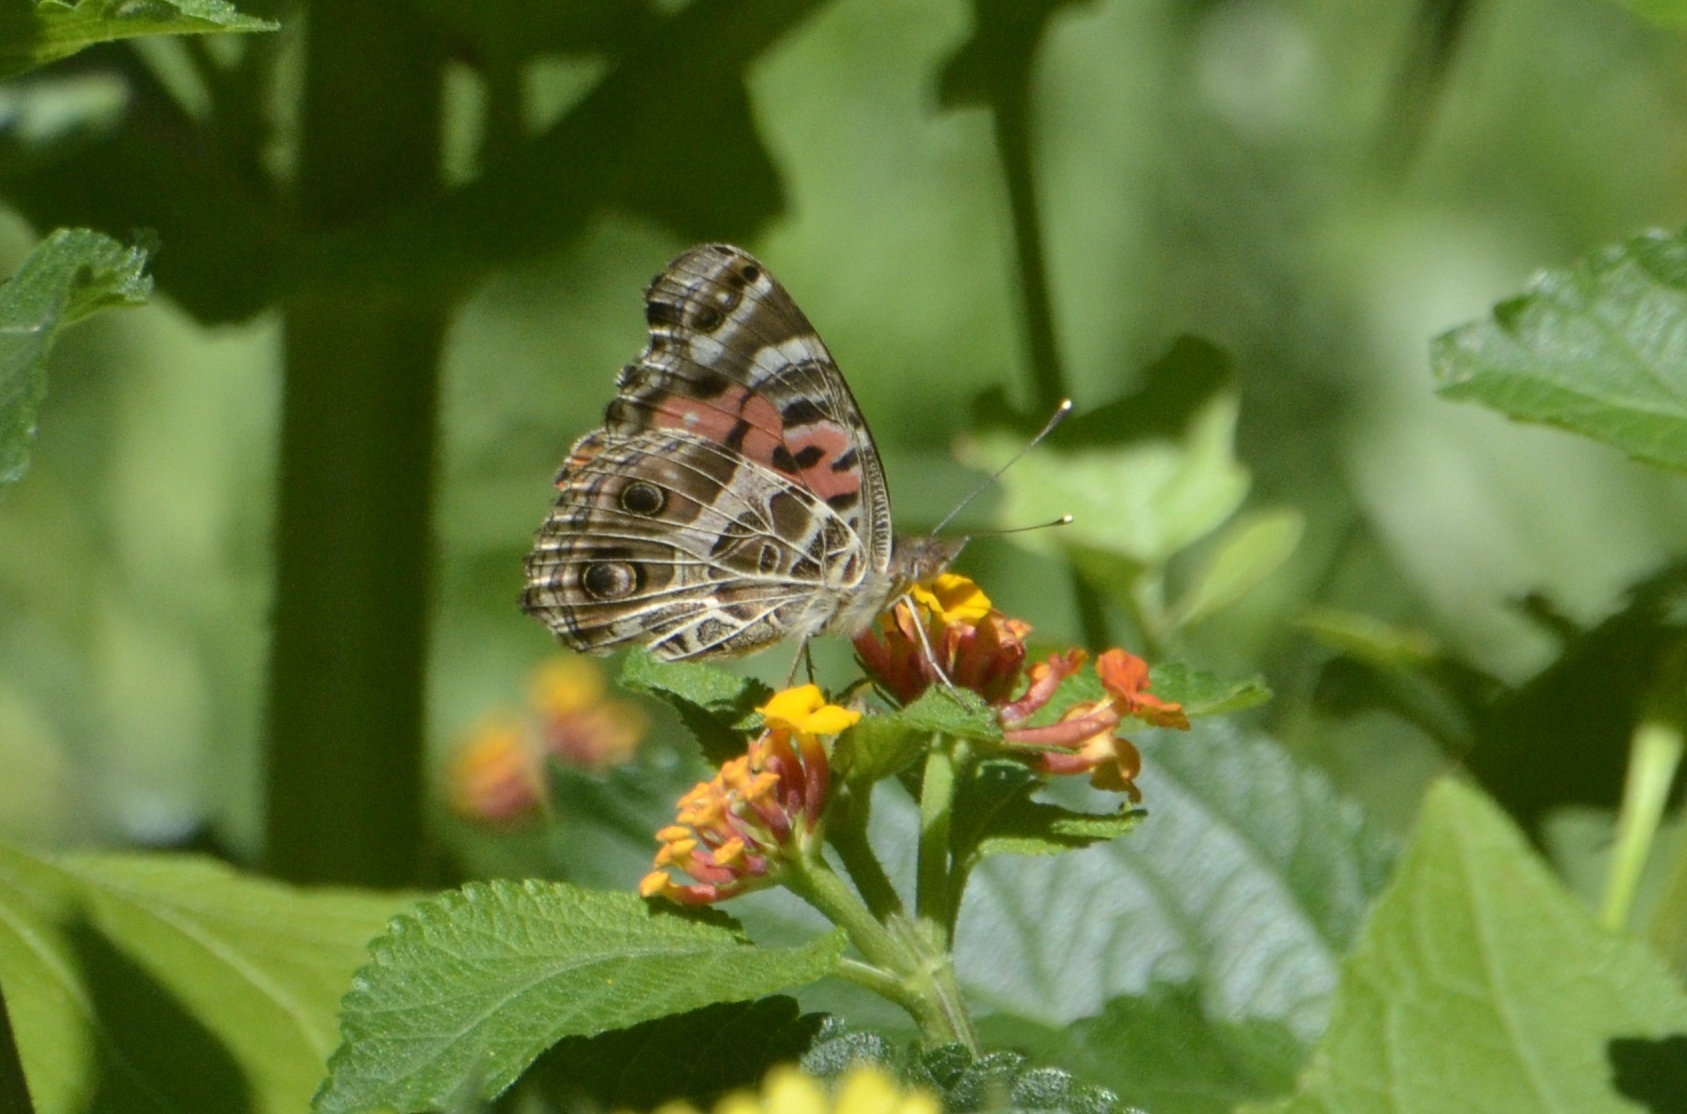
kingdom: Animalia
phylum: Arthropoda
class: Insecta
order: Lepidoptera
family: Nymphalidae
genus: Vanessa
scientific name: Vanessa braziliensis
